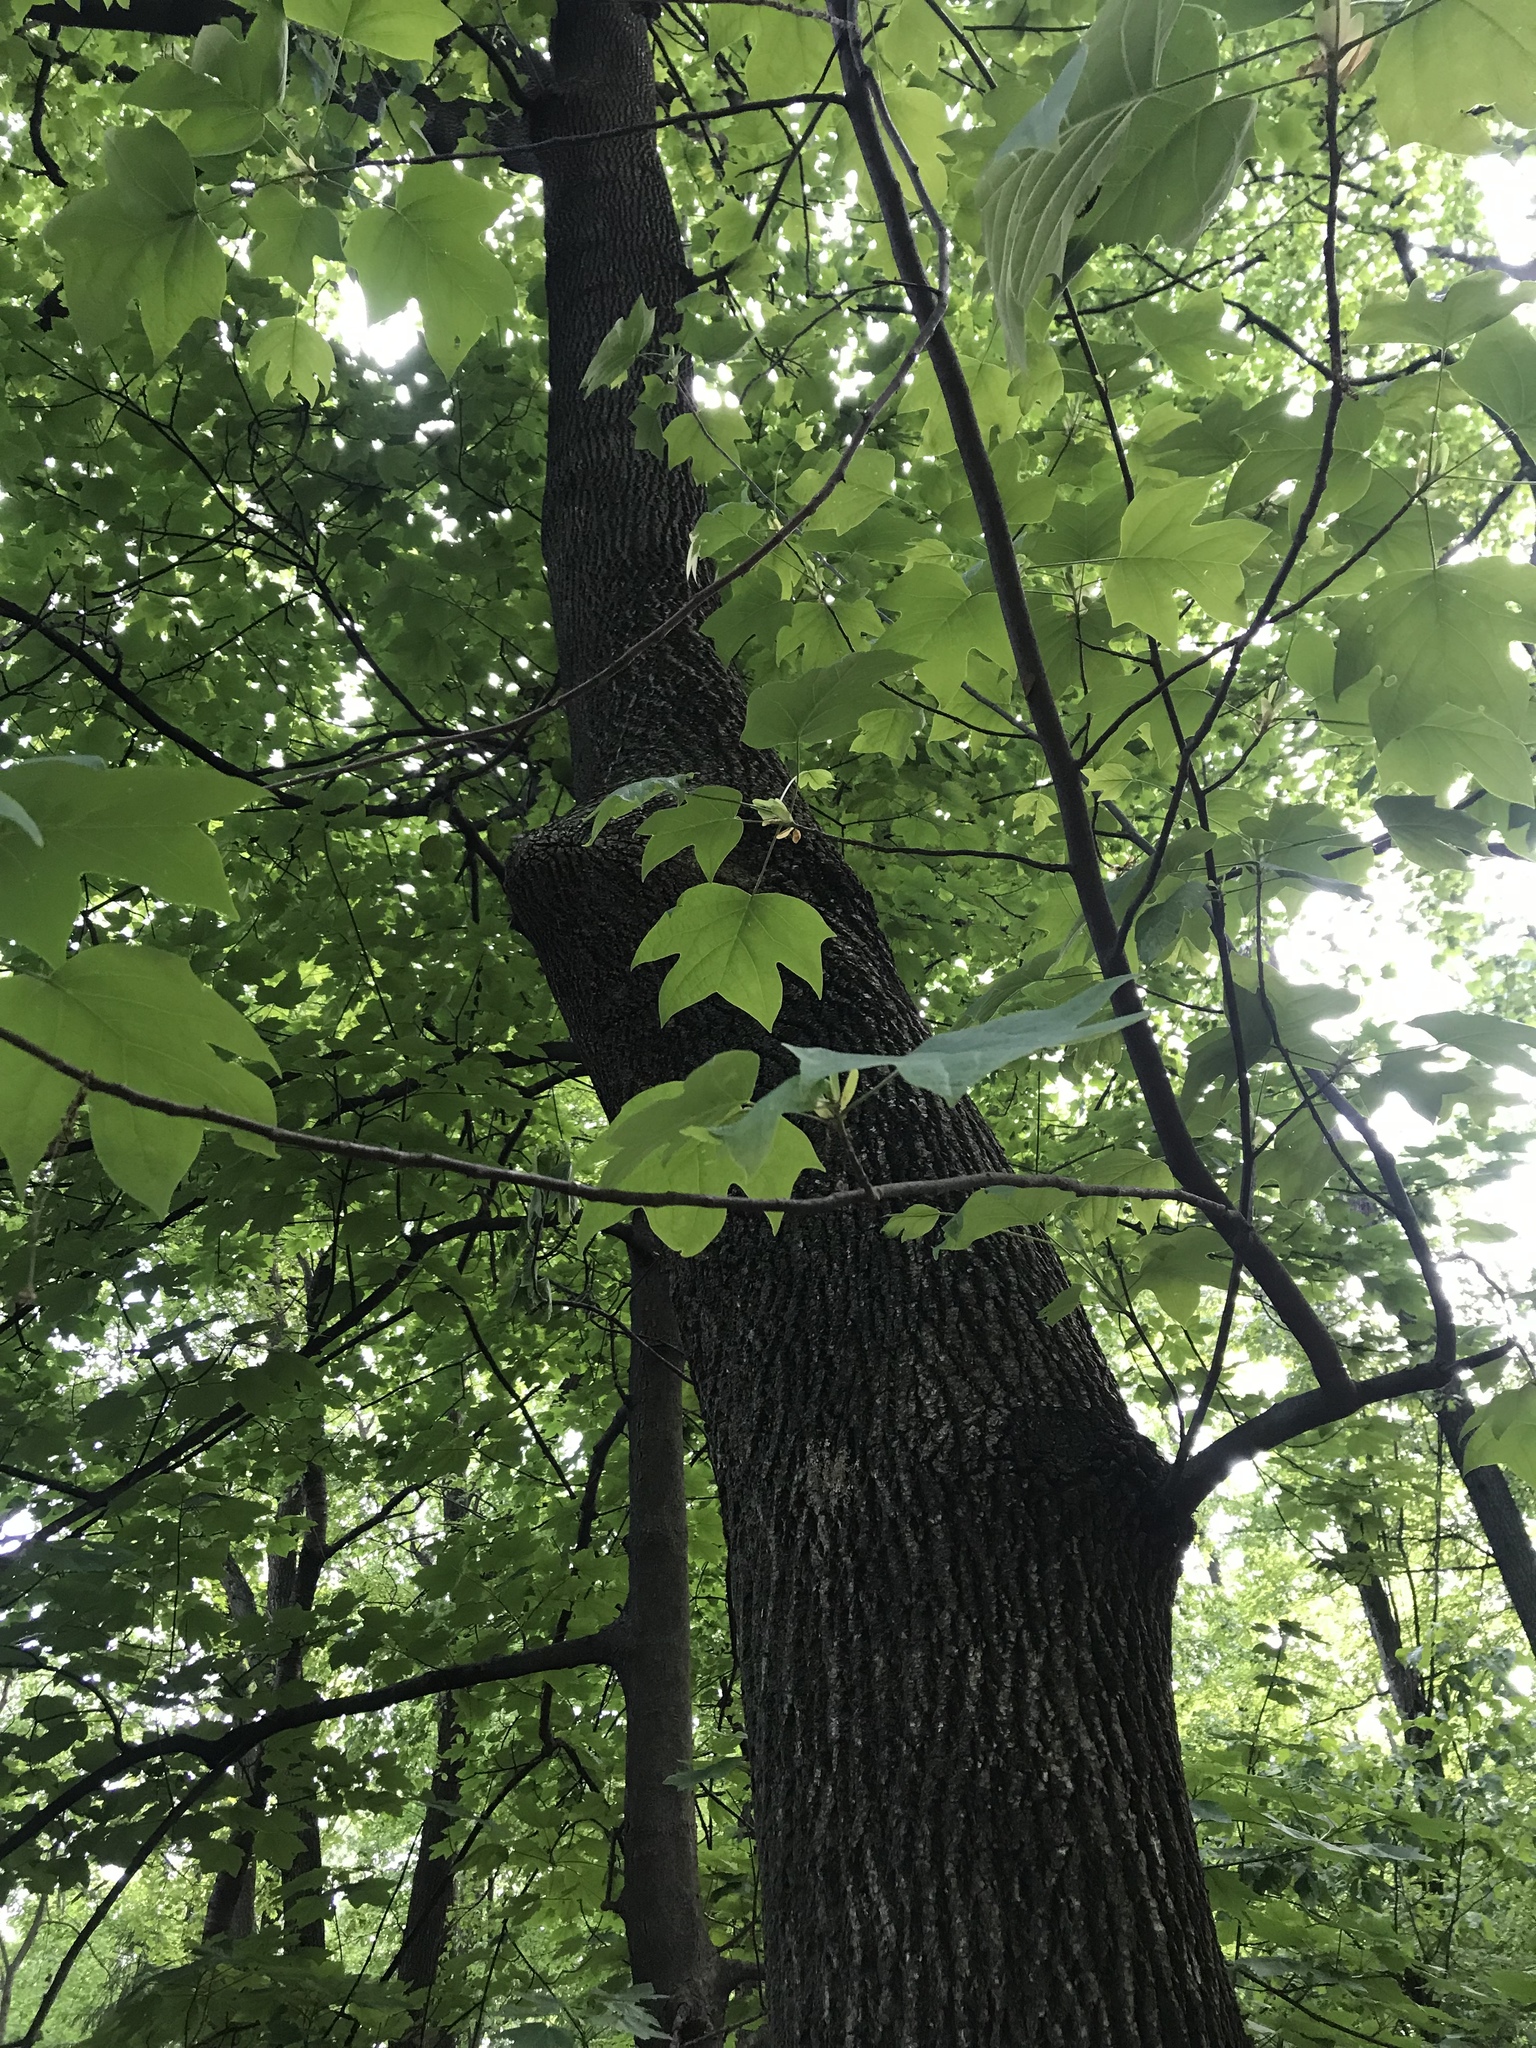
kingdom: Plantae
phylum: Tracheophyta
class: Magnoliopsida
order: Magnoliales
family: Magnoliaceae
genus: Liriodendron
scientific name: Liriodendron tulipifera
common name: Tulip tree
